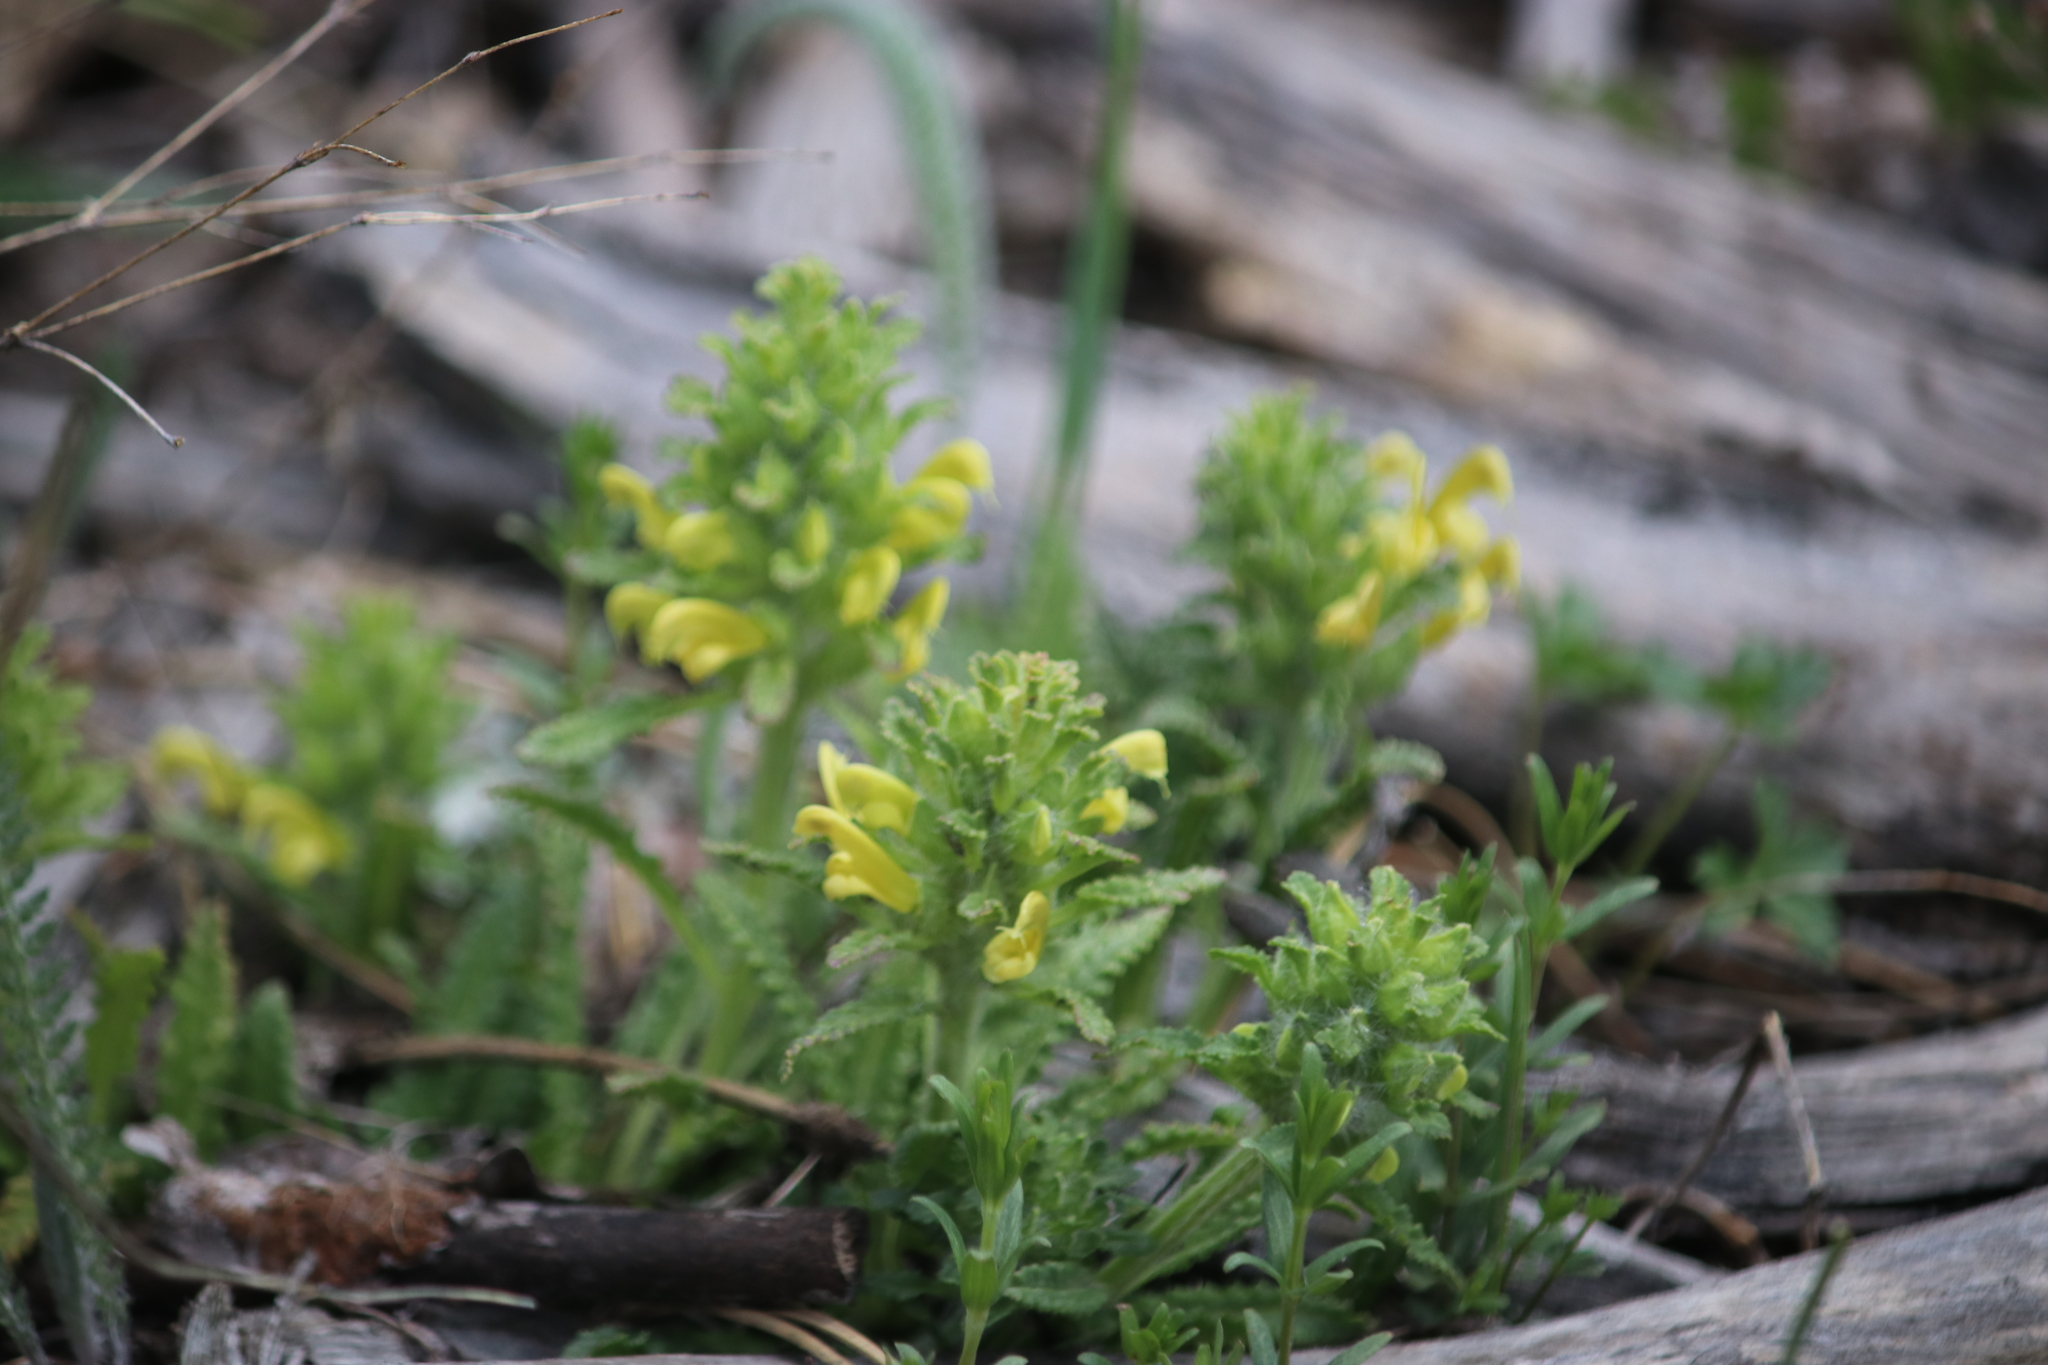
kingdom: Plantae
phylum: Tracheophyta
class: Magnoliopsida
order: Lamiales
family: Orobanchaceae
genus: Pedicularis
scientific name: Pedicularis canadensis
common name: Early lousewort
